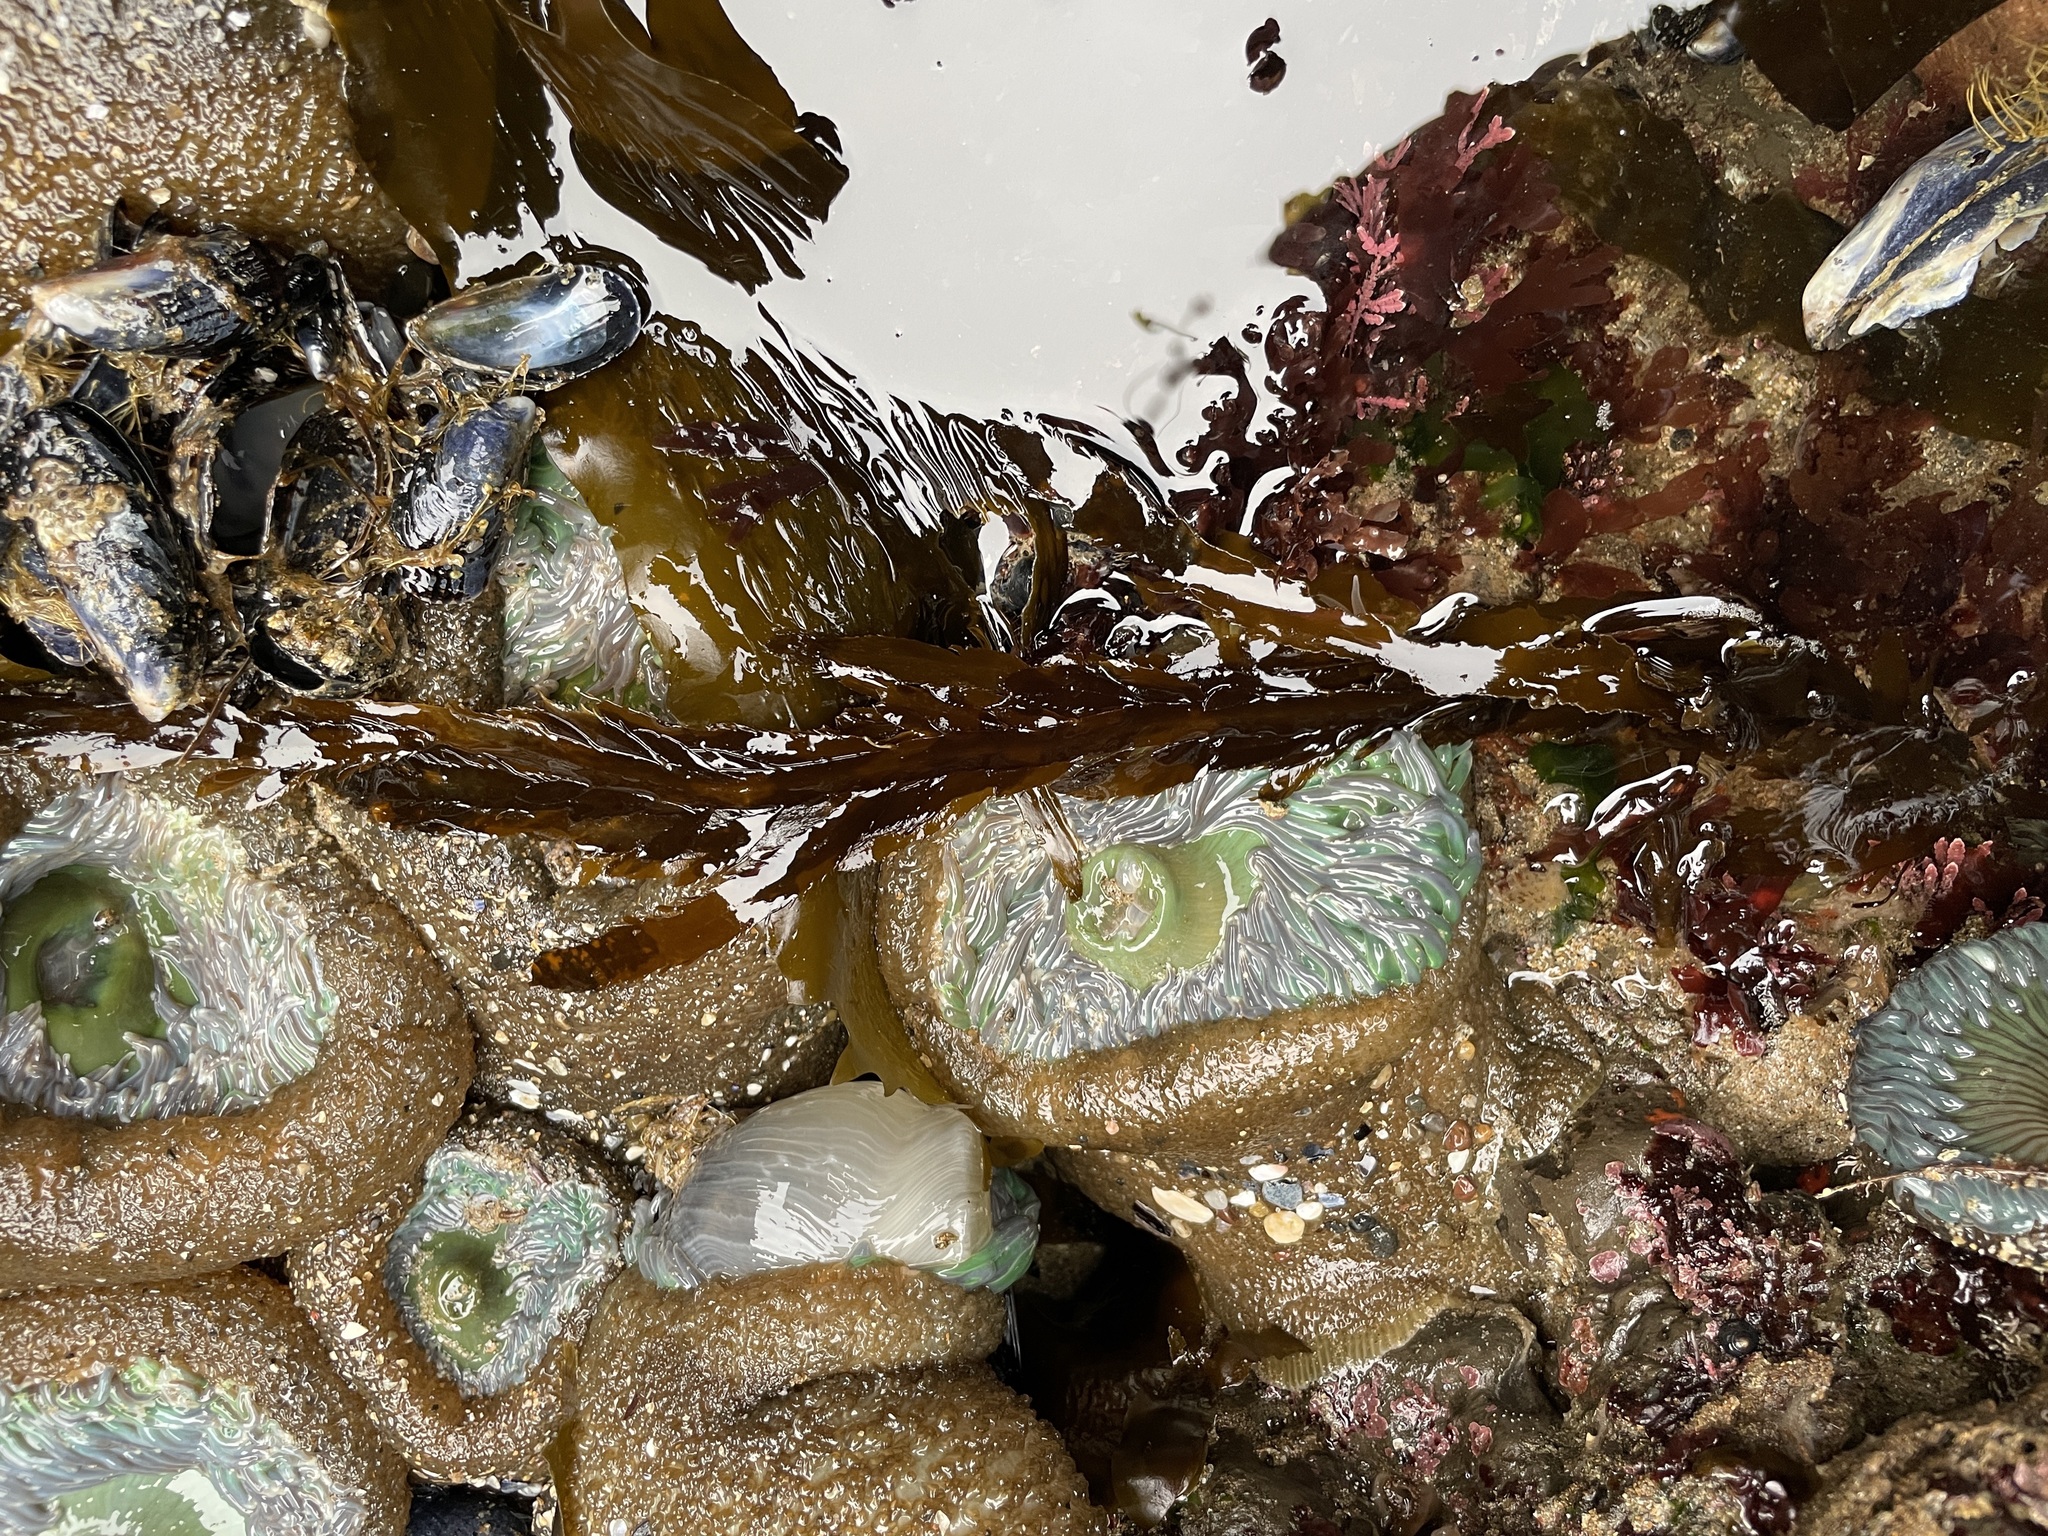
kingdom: Animalia
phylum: Cnidaria
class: Anthozoa
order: Actiniaria
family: Actiniidae
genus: Anthopleura
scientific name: Anthopleura xanthogrammica
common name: Giant green anemone
